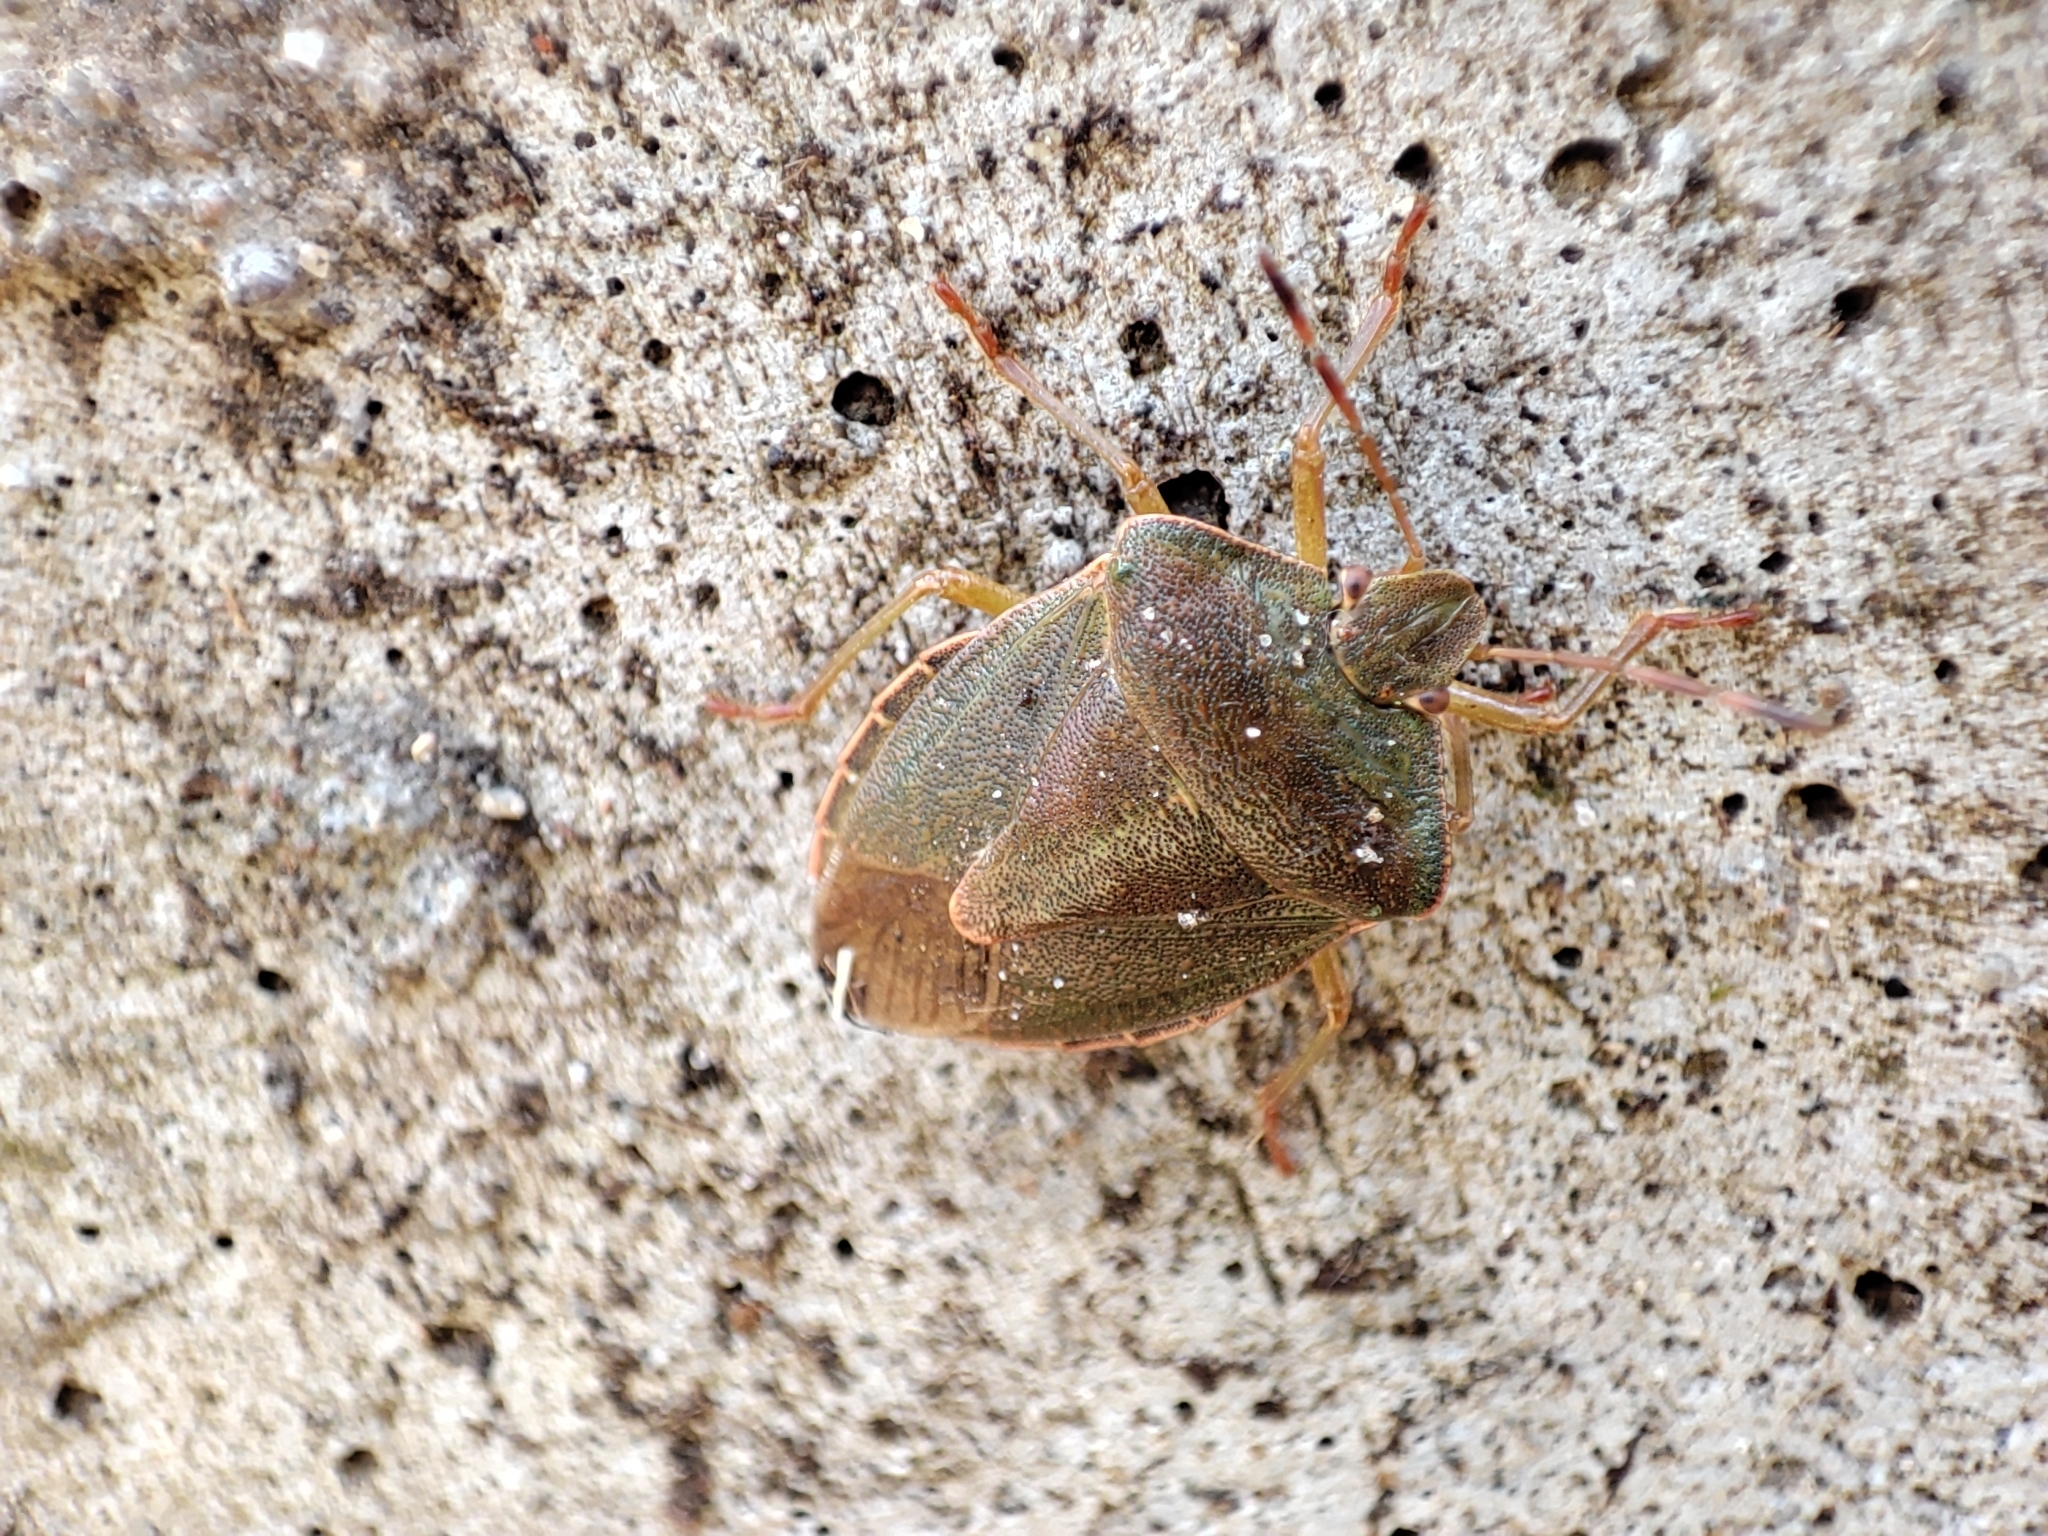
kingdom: Animalia
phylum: Arthropoda
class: Insecta
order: Hemiptera
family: Pentatomidae
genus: Palomena
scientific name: Palomena prasina
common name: Green shieldbug
